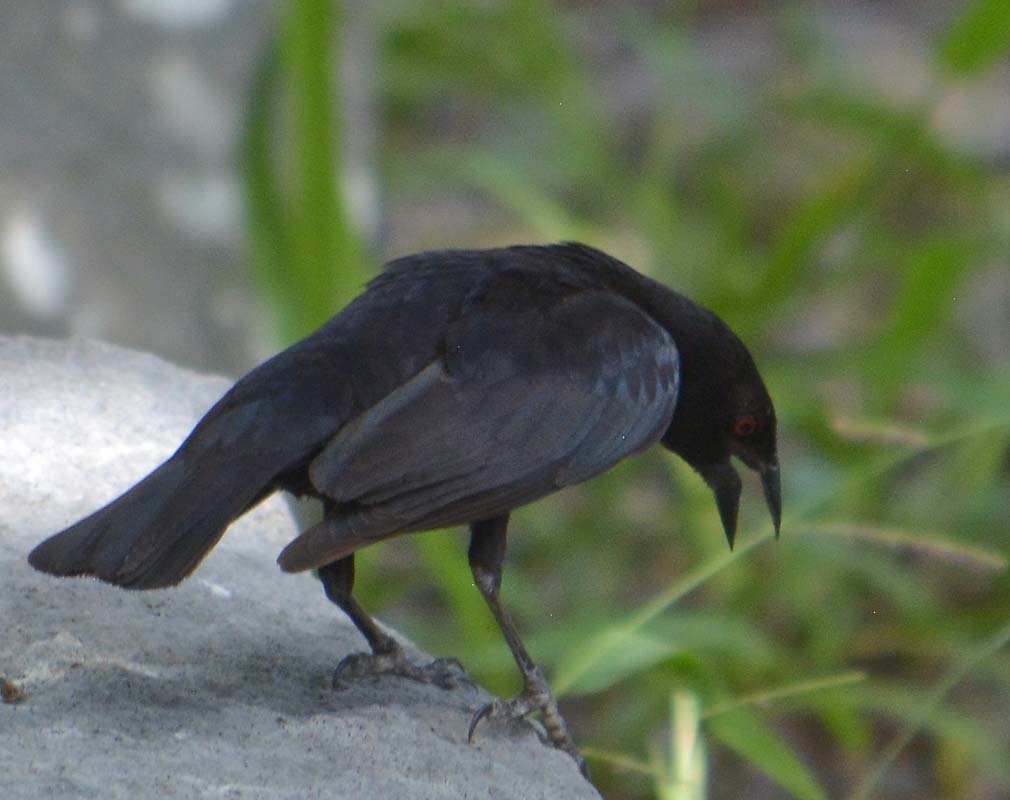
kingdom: Animalia
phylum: Chordata
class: Aves
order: Passeriformes
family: Icteridae
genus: Molothrus
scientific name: Molothrus aeneus
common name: Bronzed cowbird
